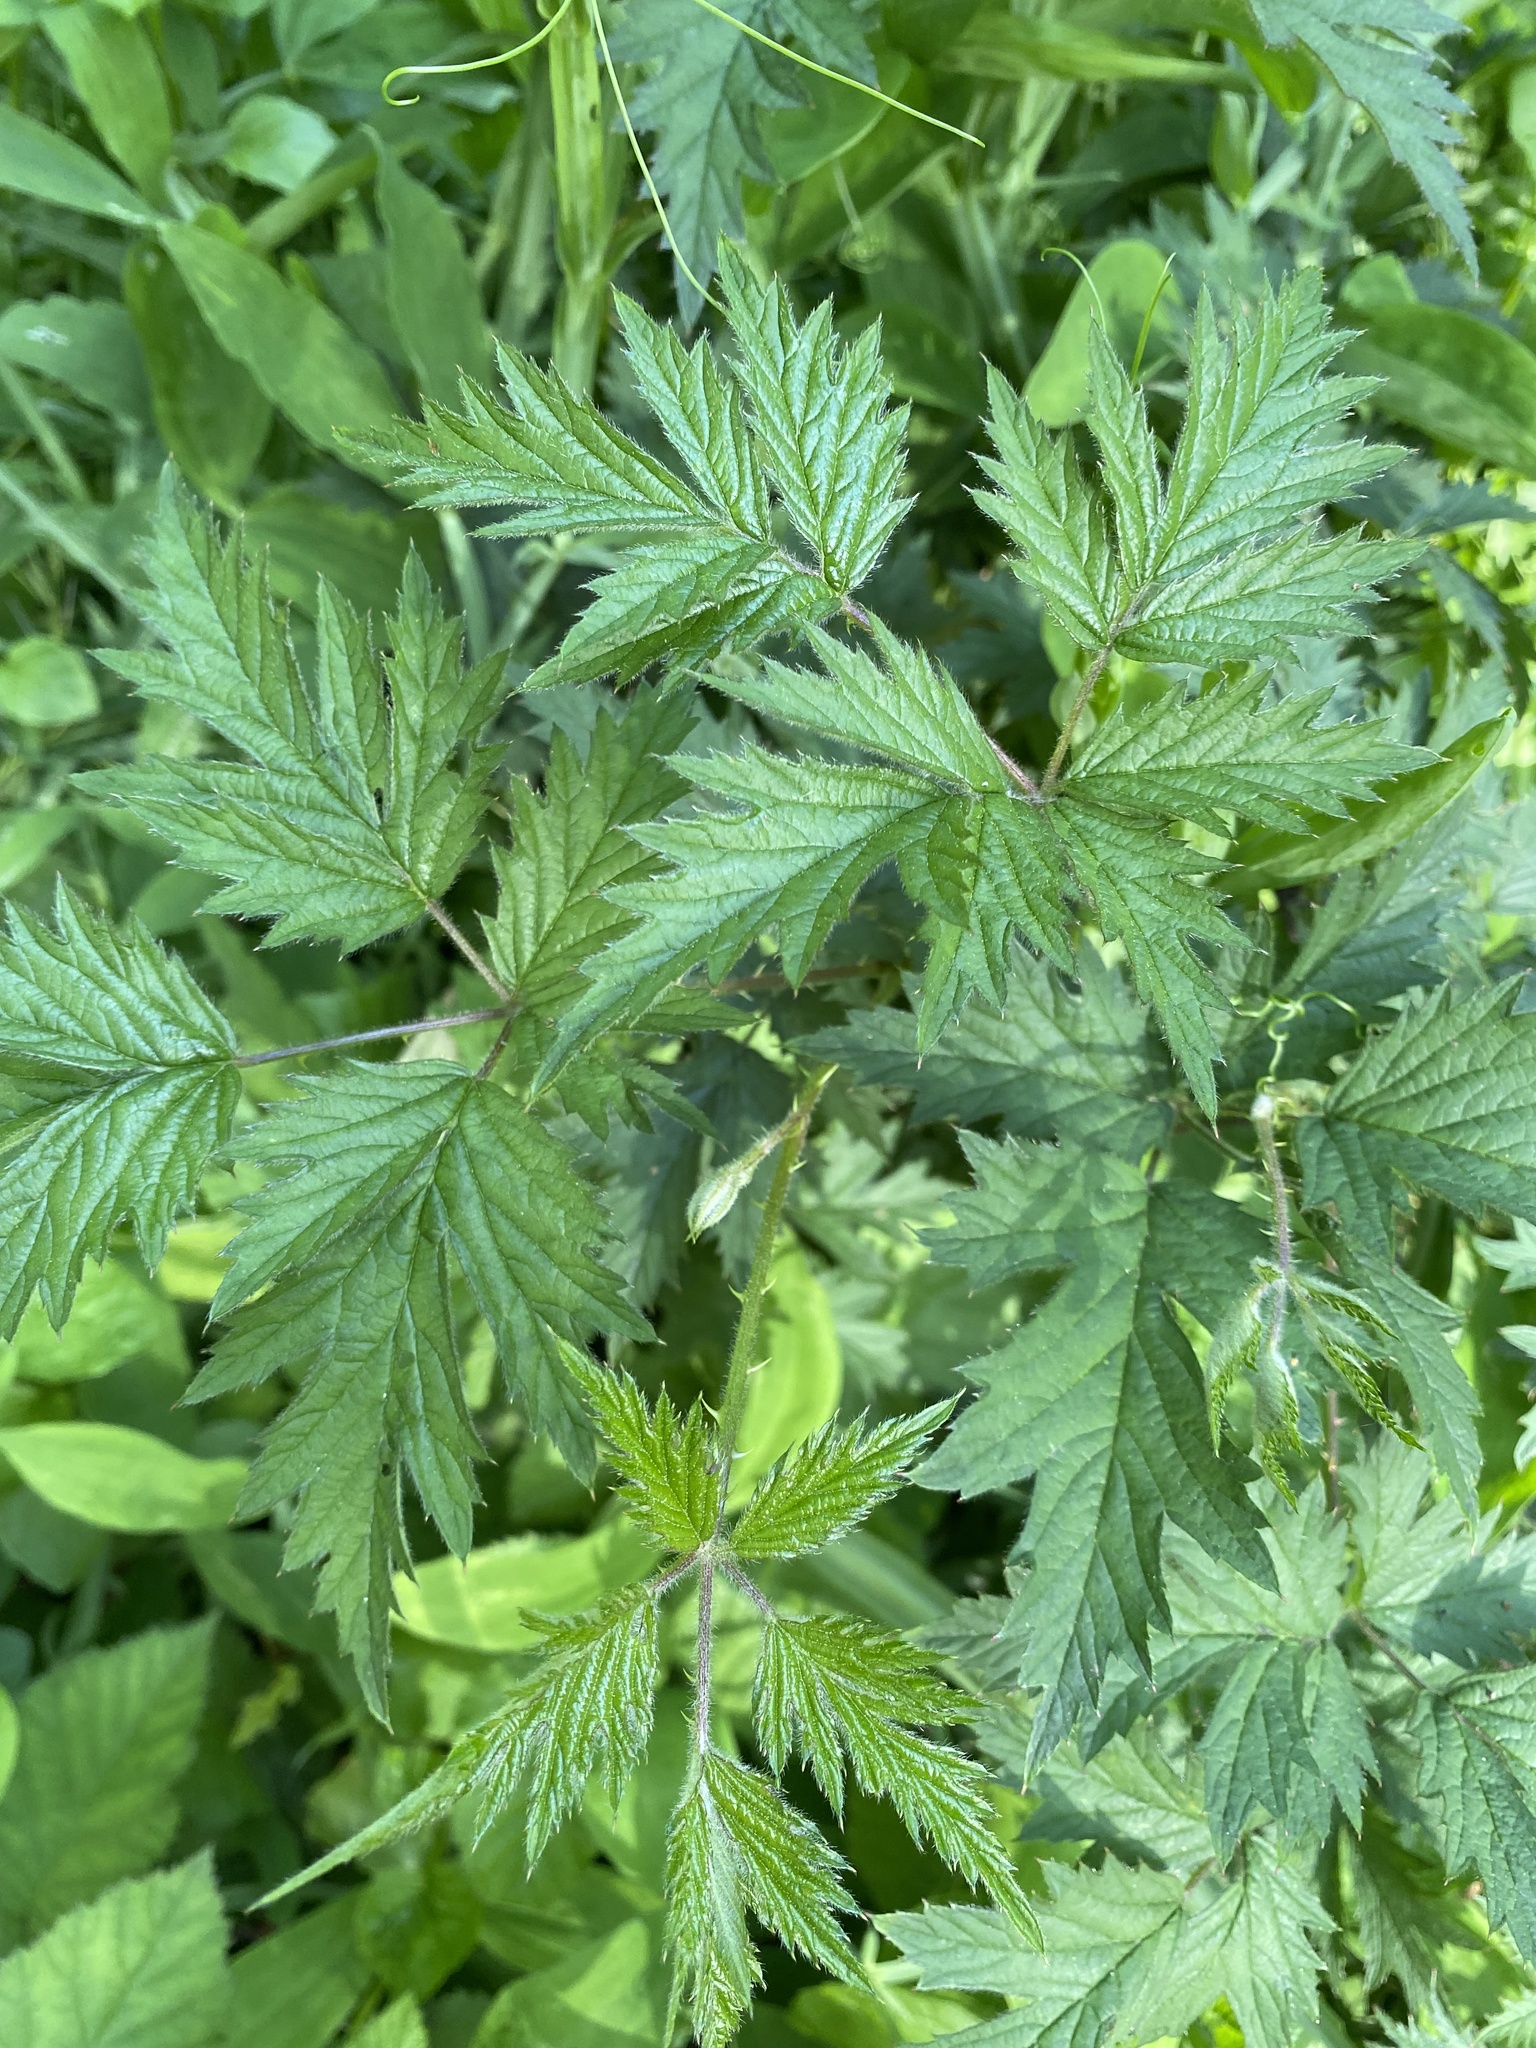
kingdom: Plantae
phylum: Tracheophyta
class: Magnoliopsida
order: Rosales
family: Rosaceae
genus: Rubus
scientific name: Rubus laciniatus
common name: Evergreen blackberry
